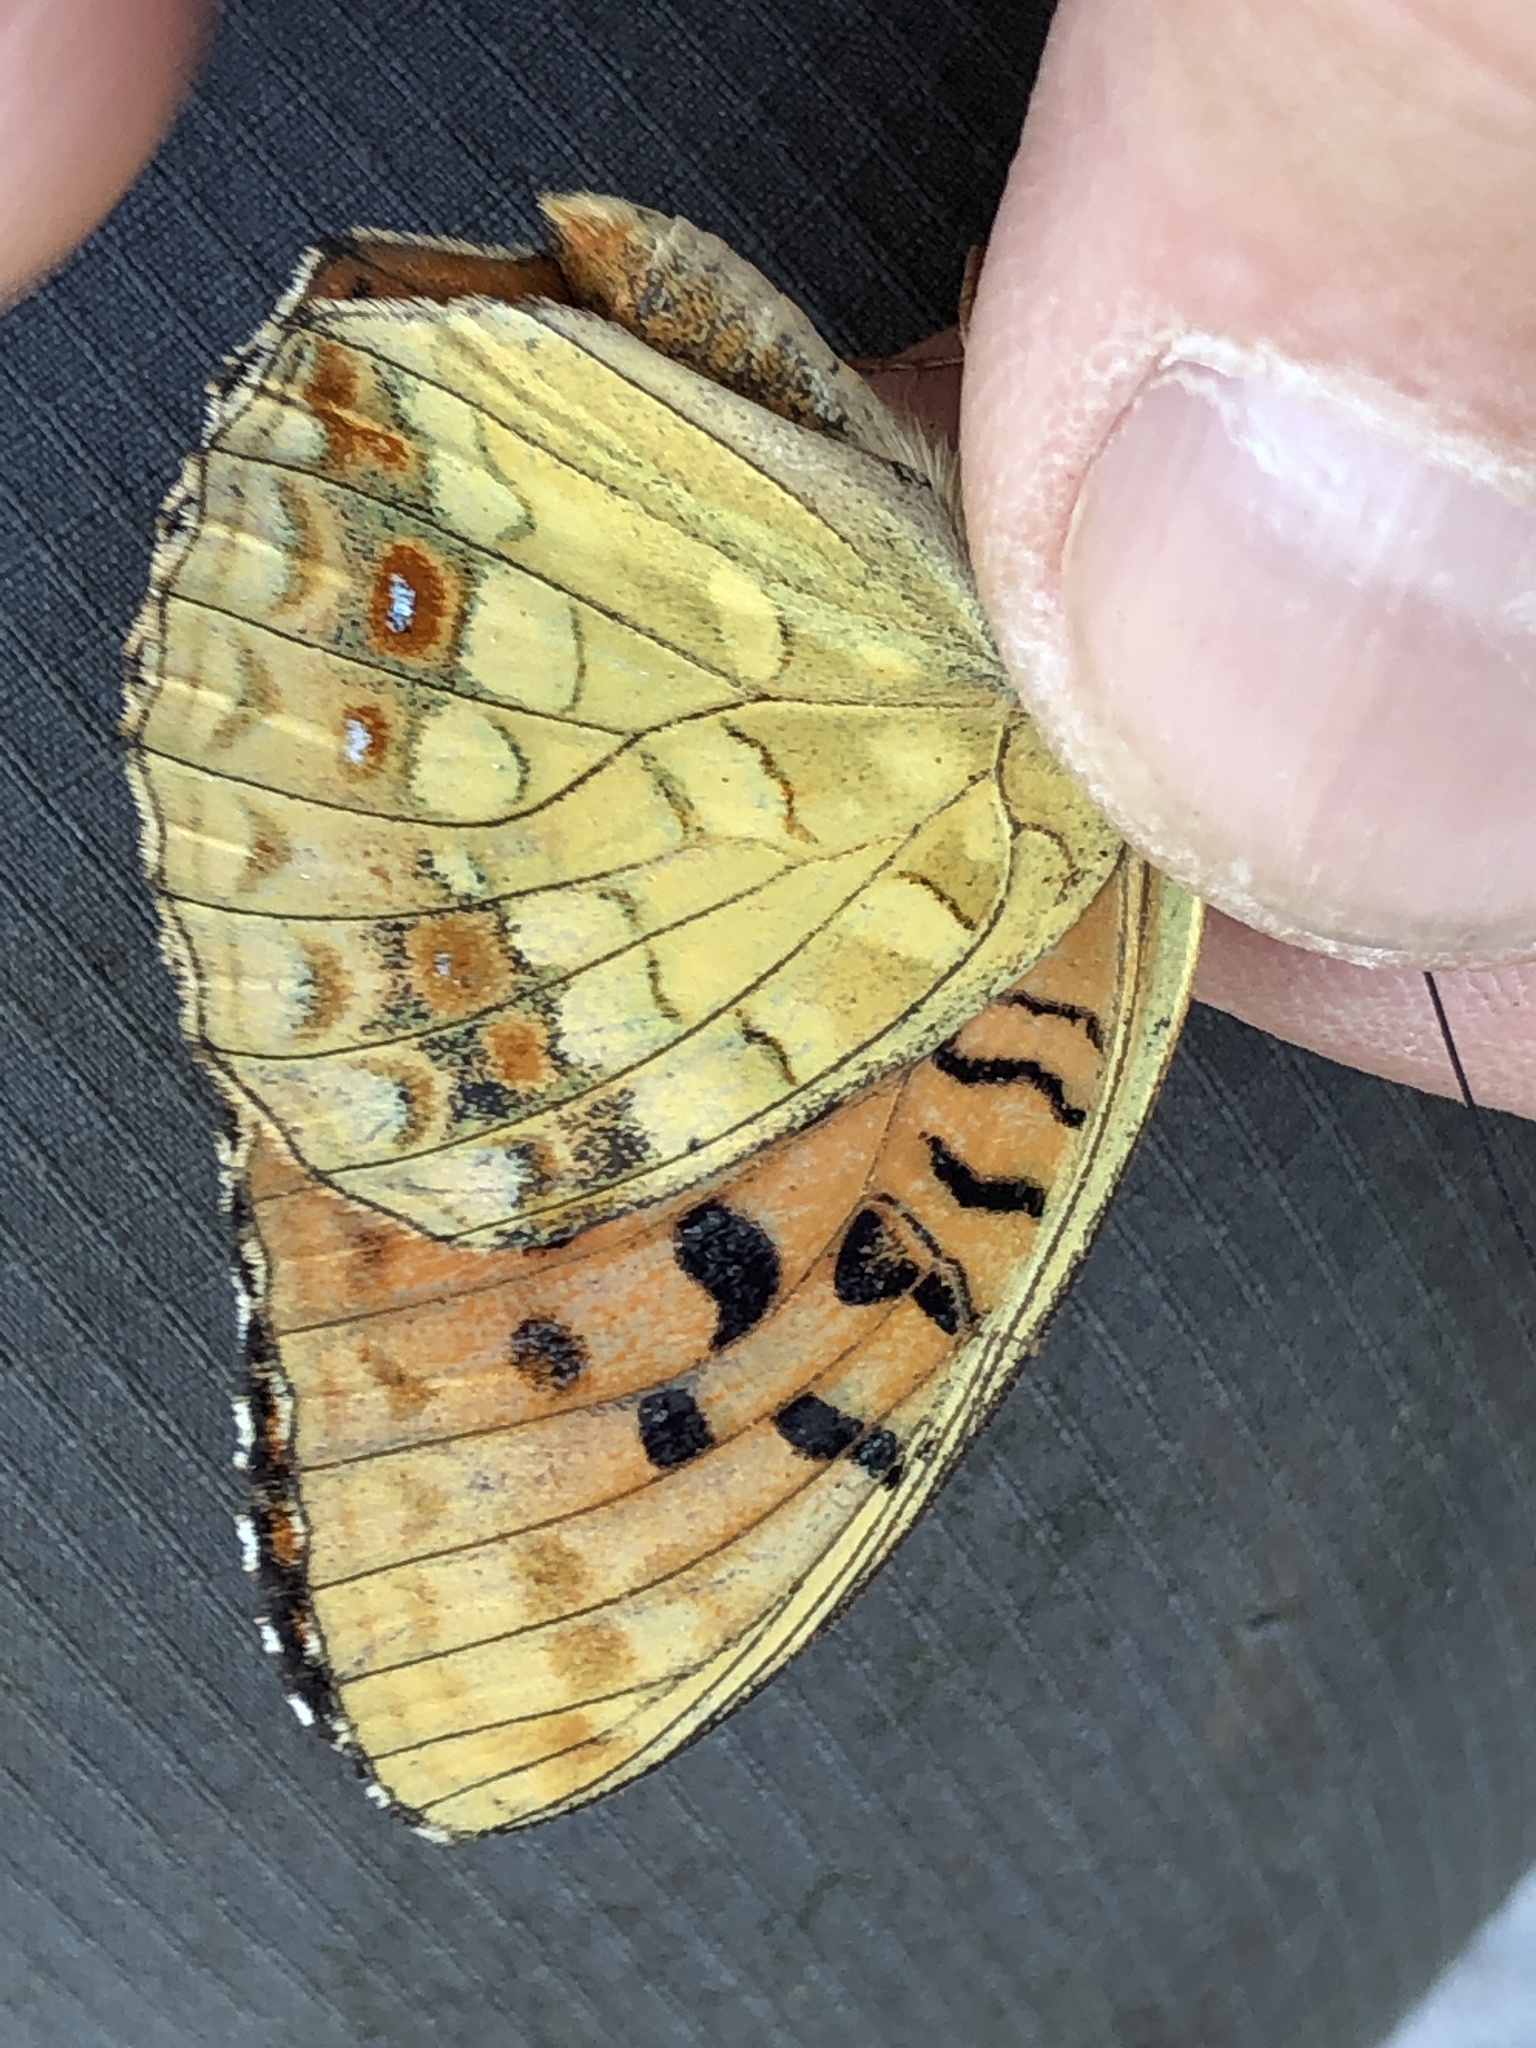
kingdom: Animalia
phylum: Arthropoda
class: Insecta
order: Lepidoptera
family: Nymphalidae
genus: Fabriciana
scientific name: Fabriciana adippe
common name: High brown fritillary
